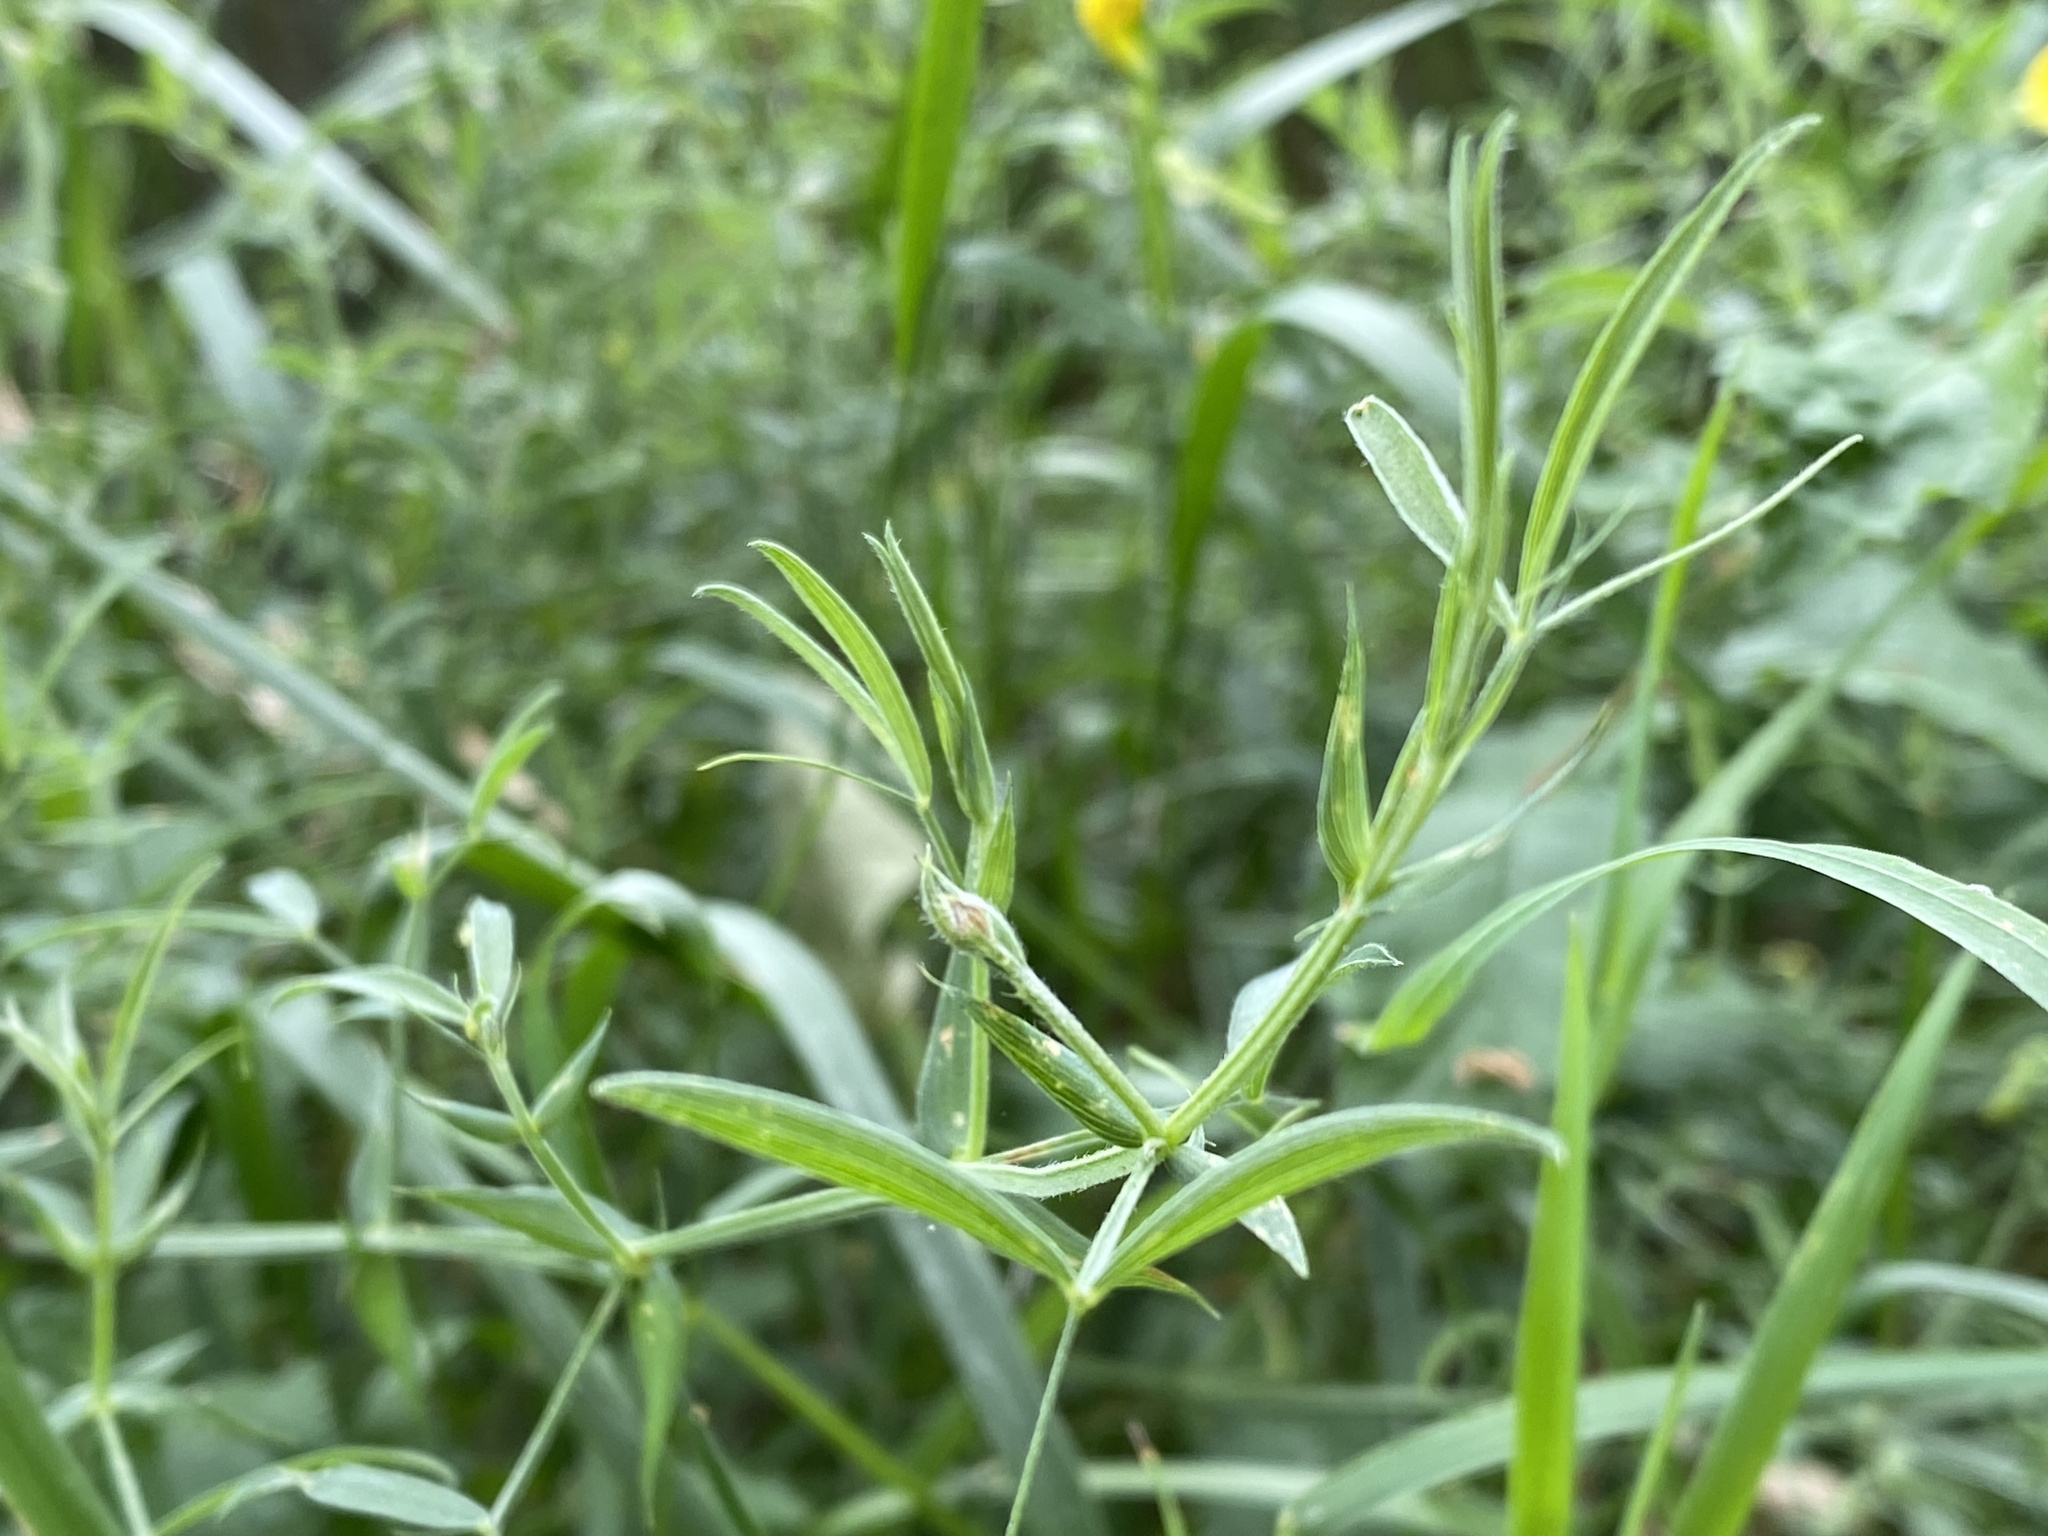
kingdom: Plantae
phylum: Tracheophyta
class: Magnoliopsida
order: Fabales
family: Fabaceae
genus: Lathyrus
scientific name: Lathyrus pratensis
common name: Meadow vetchling
